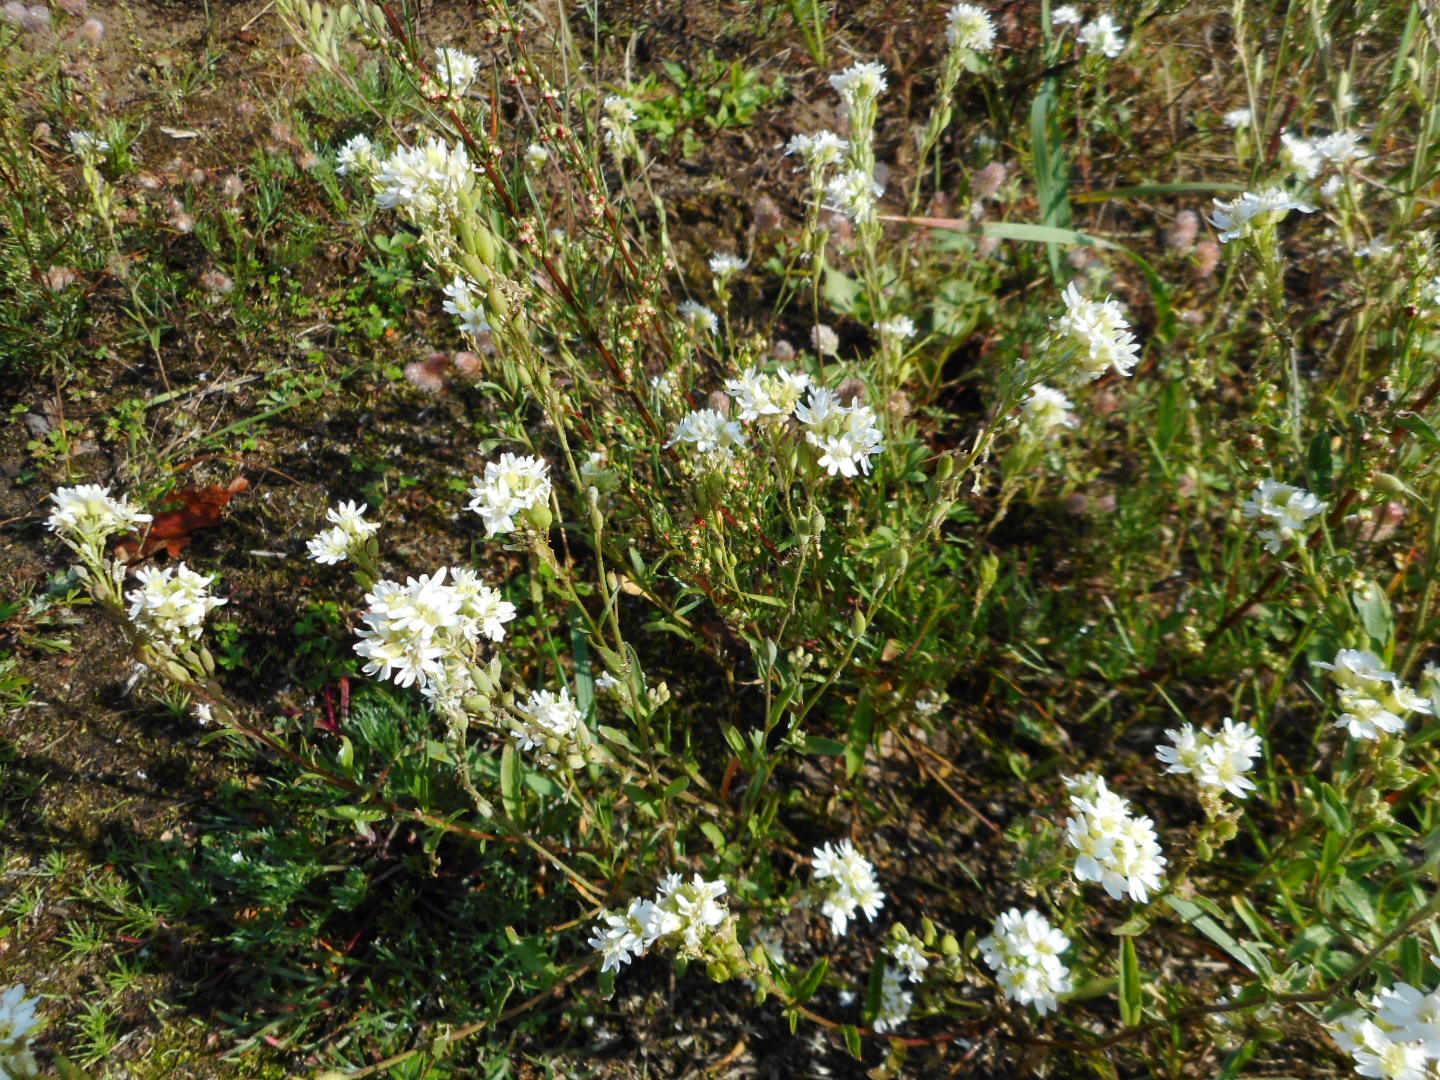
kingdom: Plantae
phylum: Tracheophyta
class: Magnoliopsida
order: Brassicales
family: Brassicaceae
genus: Berteroa
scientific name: Berteroa incana
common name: Hoary alison
